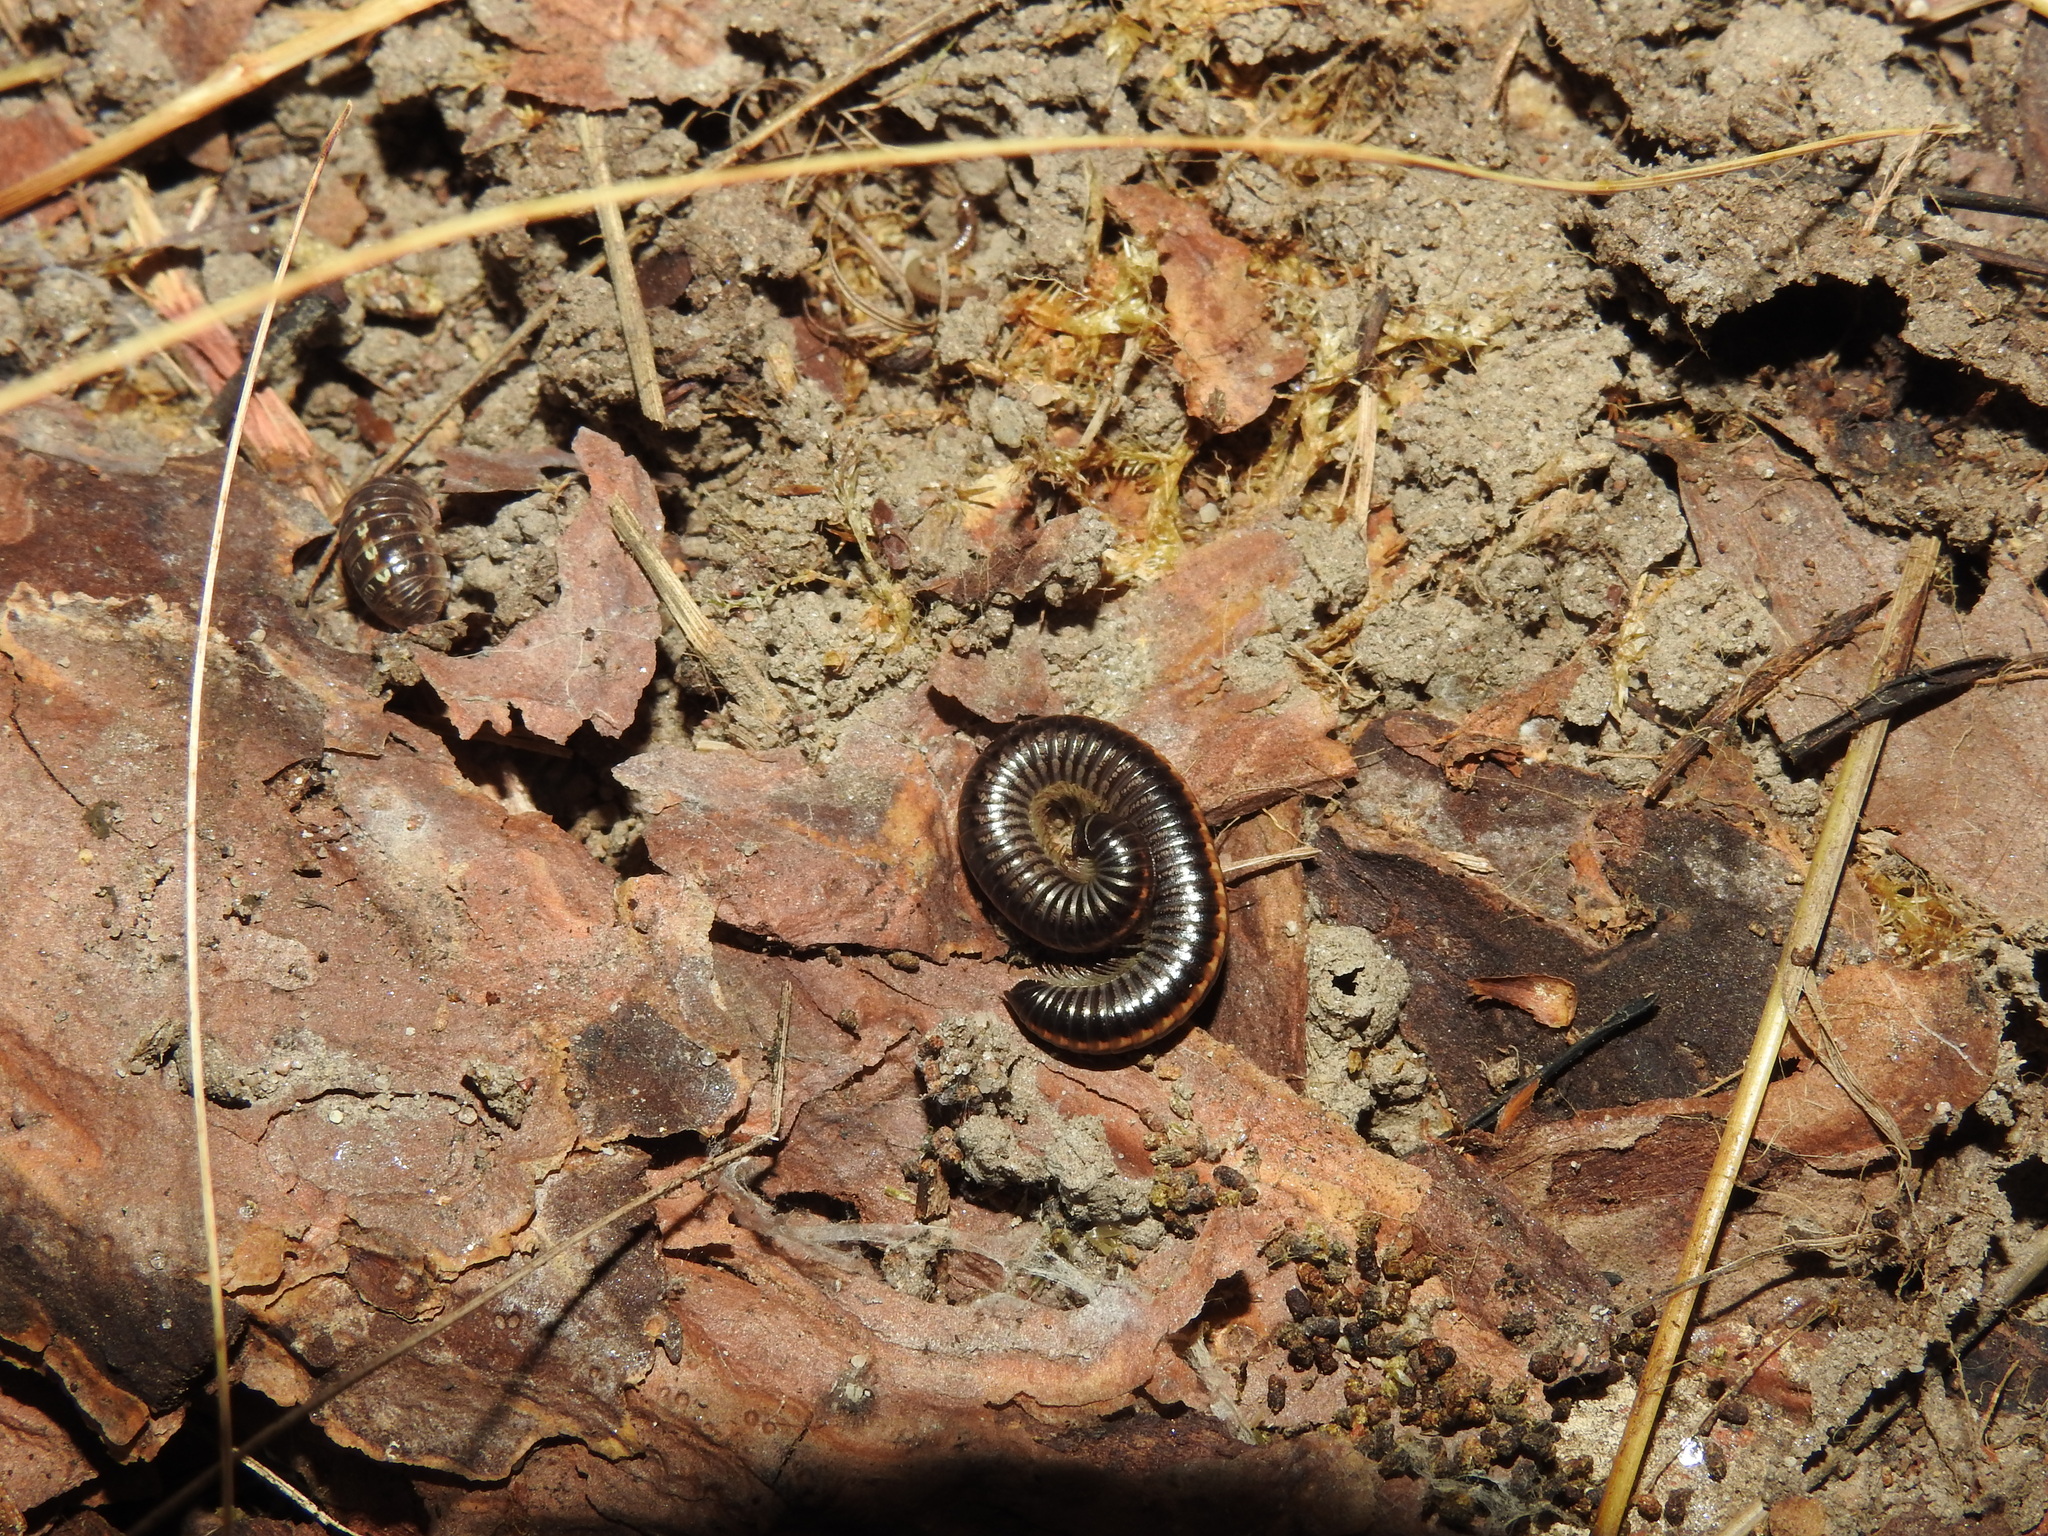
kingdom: Animalia
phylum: Arthropoda
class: Diplopoda
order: Julida
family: Julidae
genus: Ommatoiulus
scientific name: Ommatoiulus sabulosus
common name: Striped millipede
